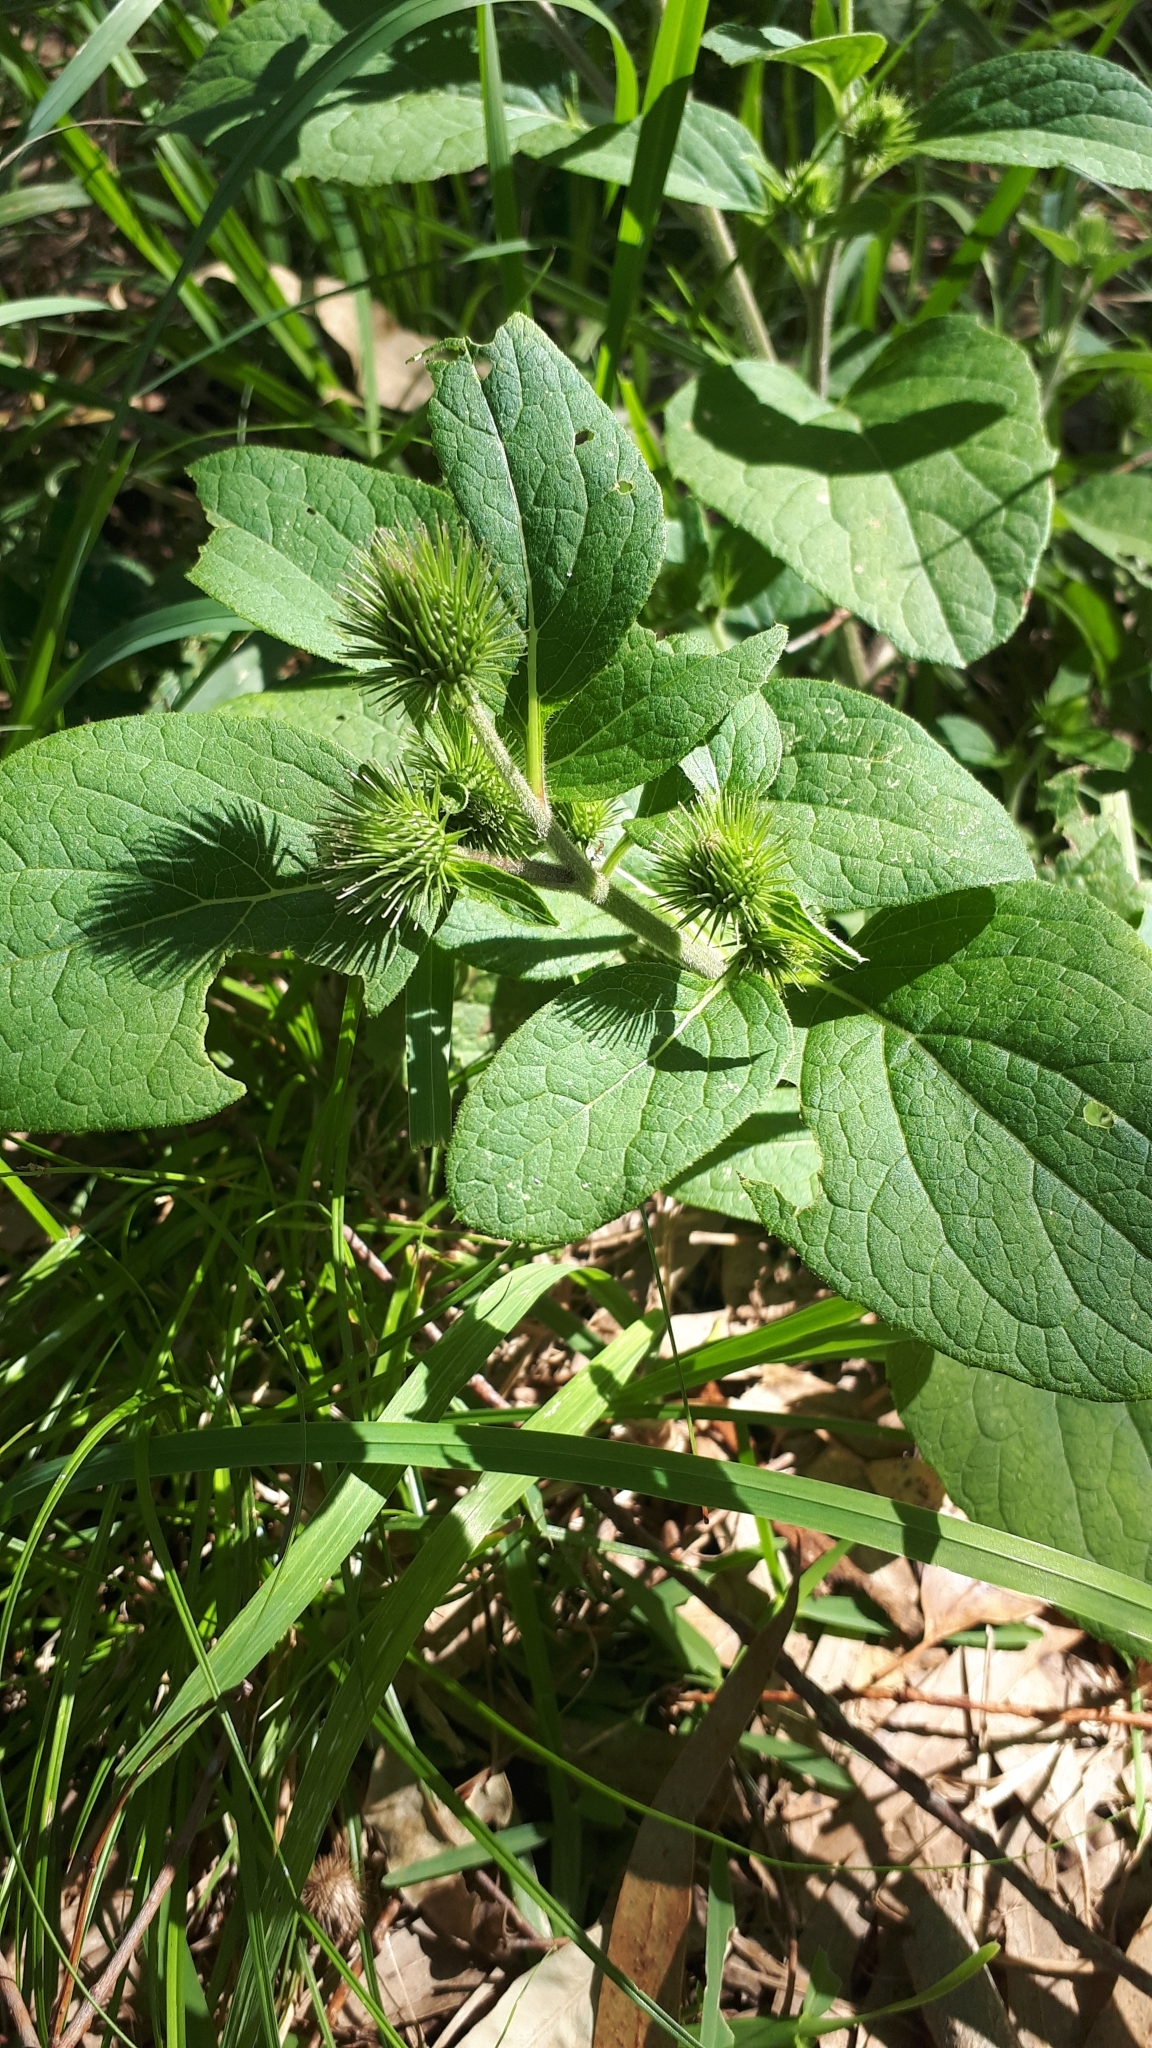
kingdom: Plantae
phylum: Tracheophyta
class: Magnoliopsida
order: Asterales
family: Asteraceae
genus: Arctium
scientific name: Arctium minus
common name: Lesser burdock
